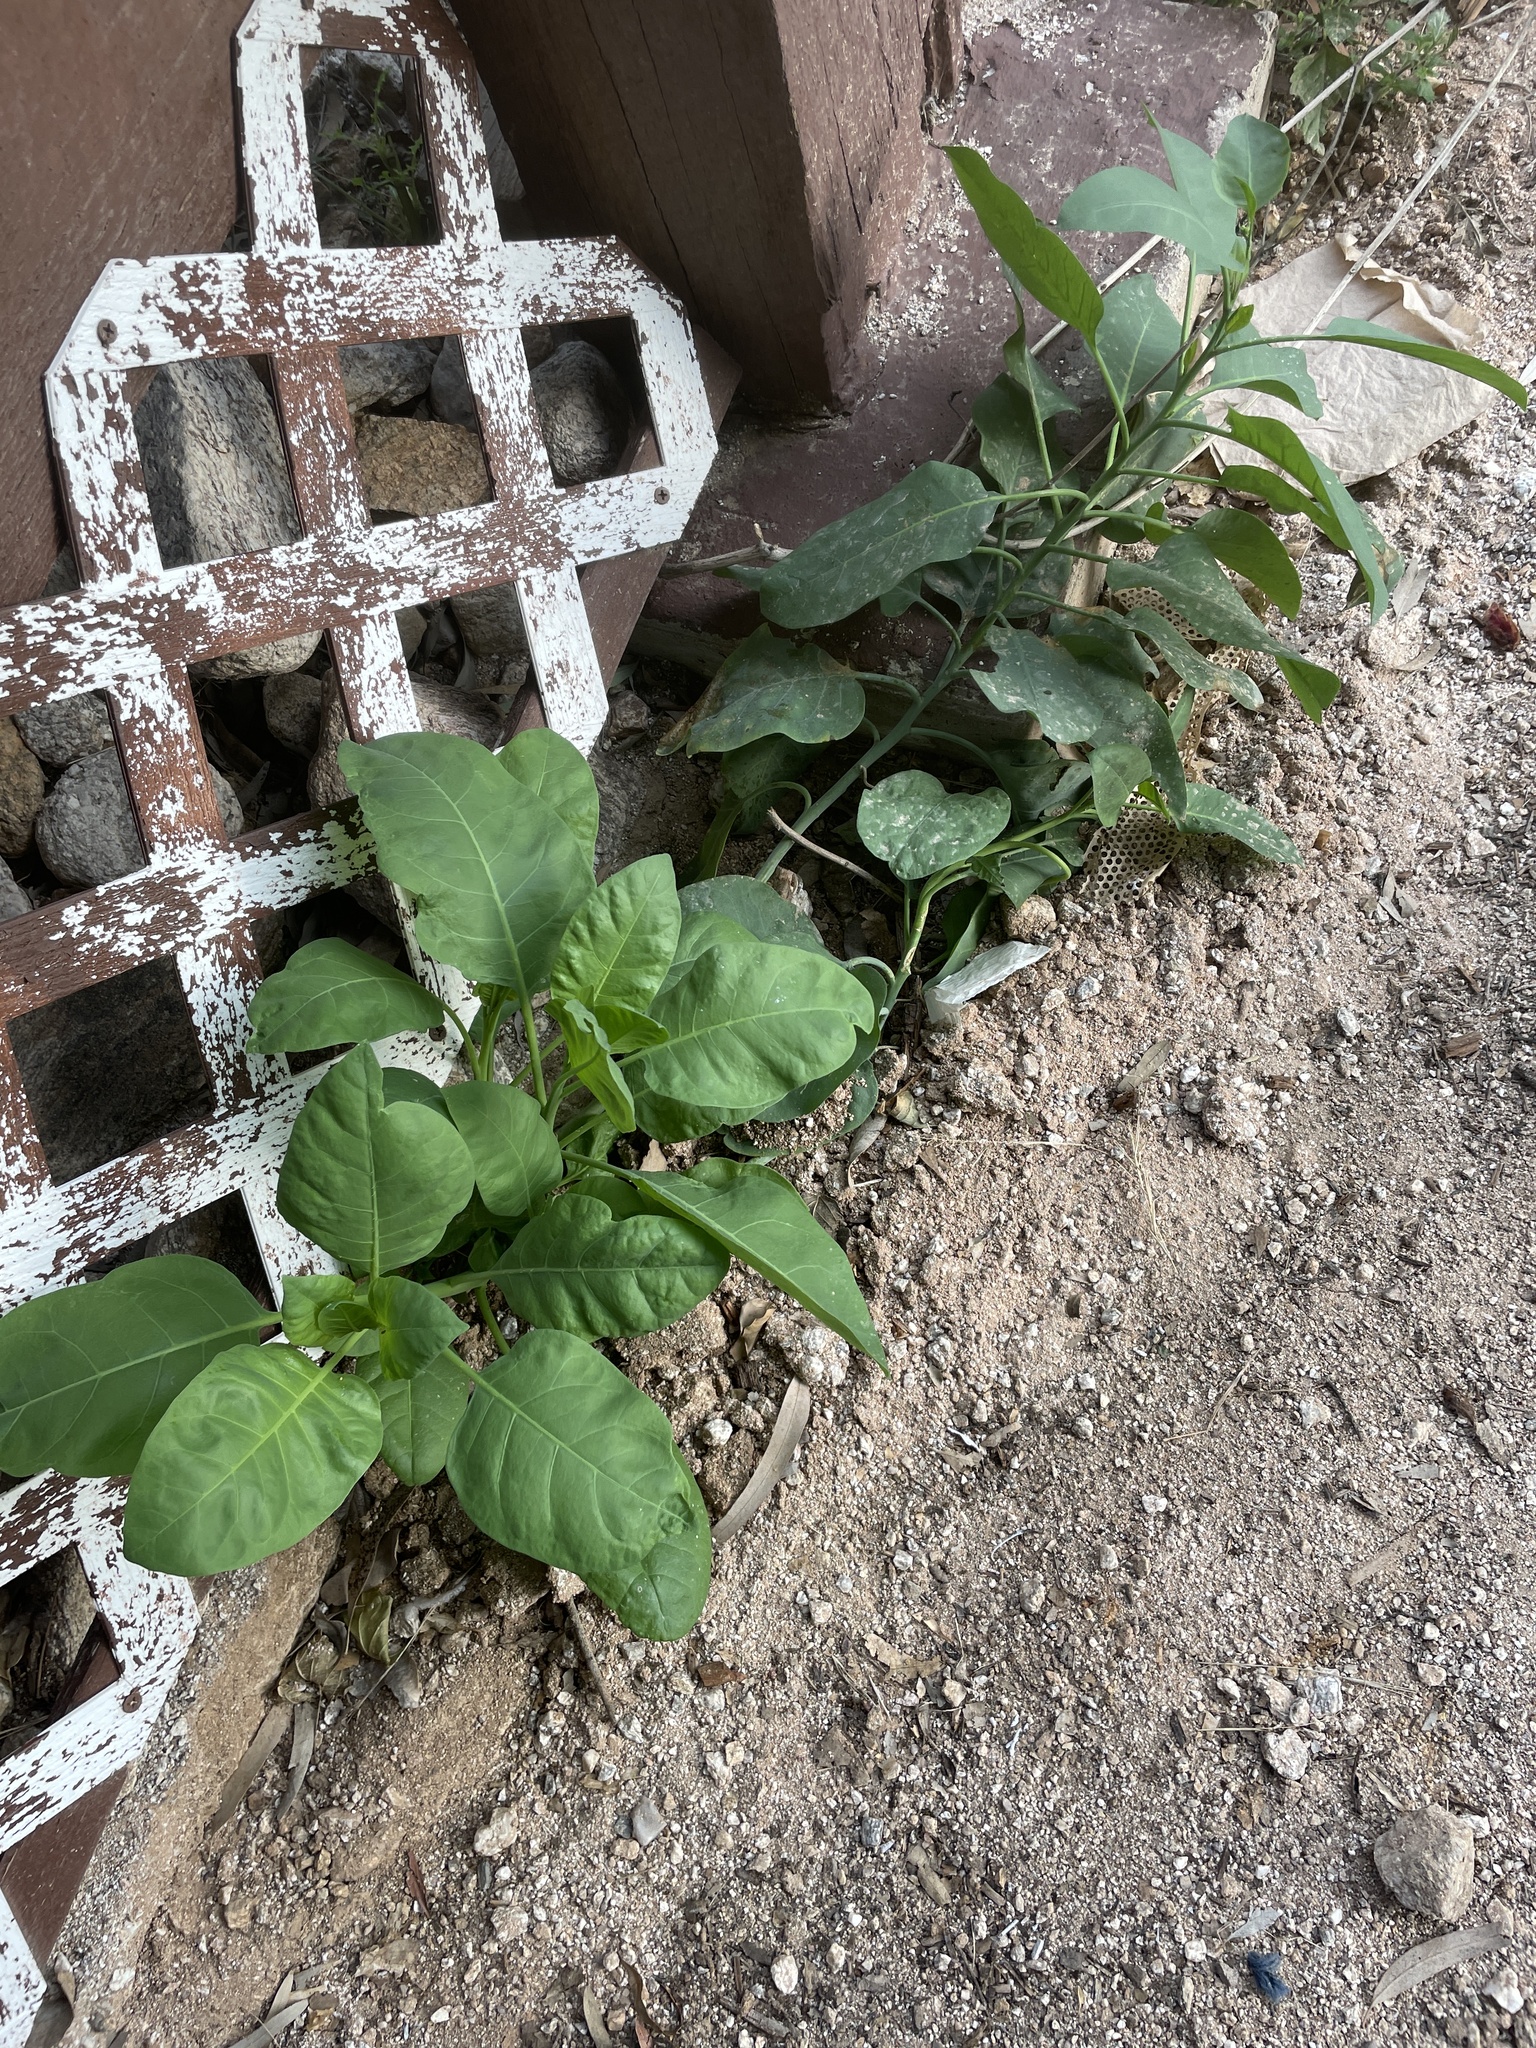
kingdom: Plantae
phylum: Tracheophyta
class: Magnoliopsida
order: Solanales
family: Solanaceae
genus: Nicotiana
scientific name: Nicotiana glauca
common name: Tree tobacco
